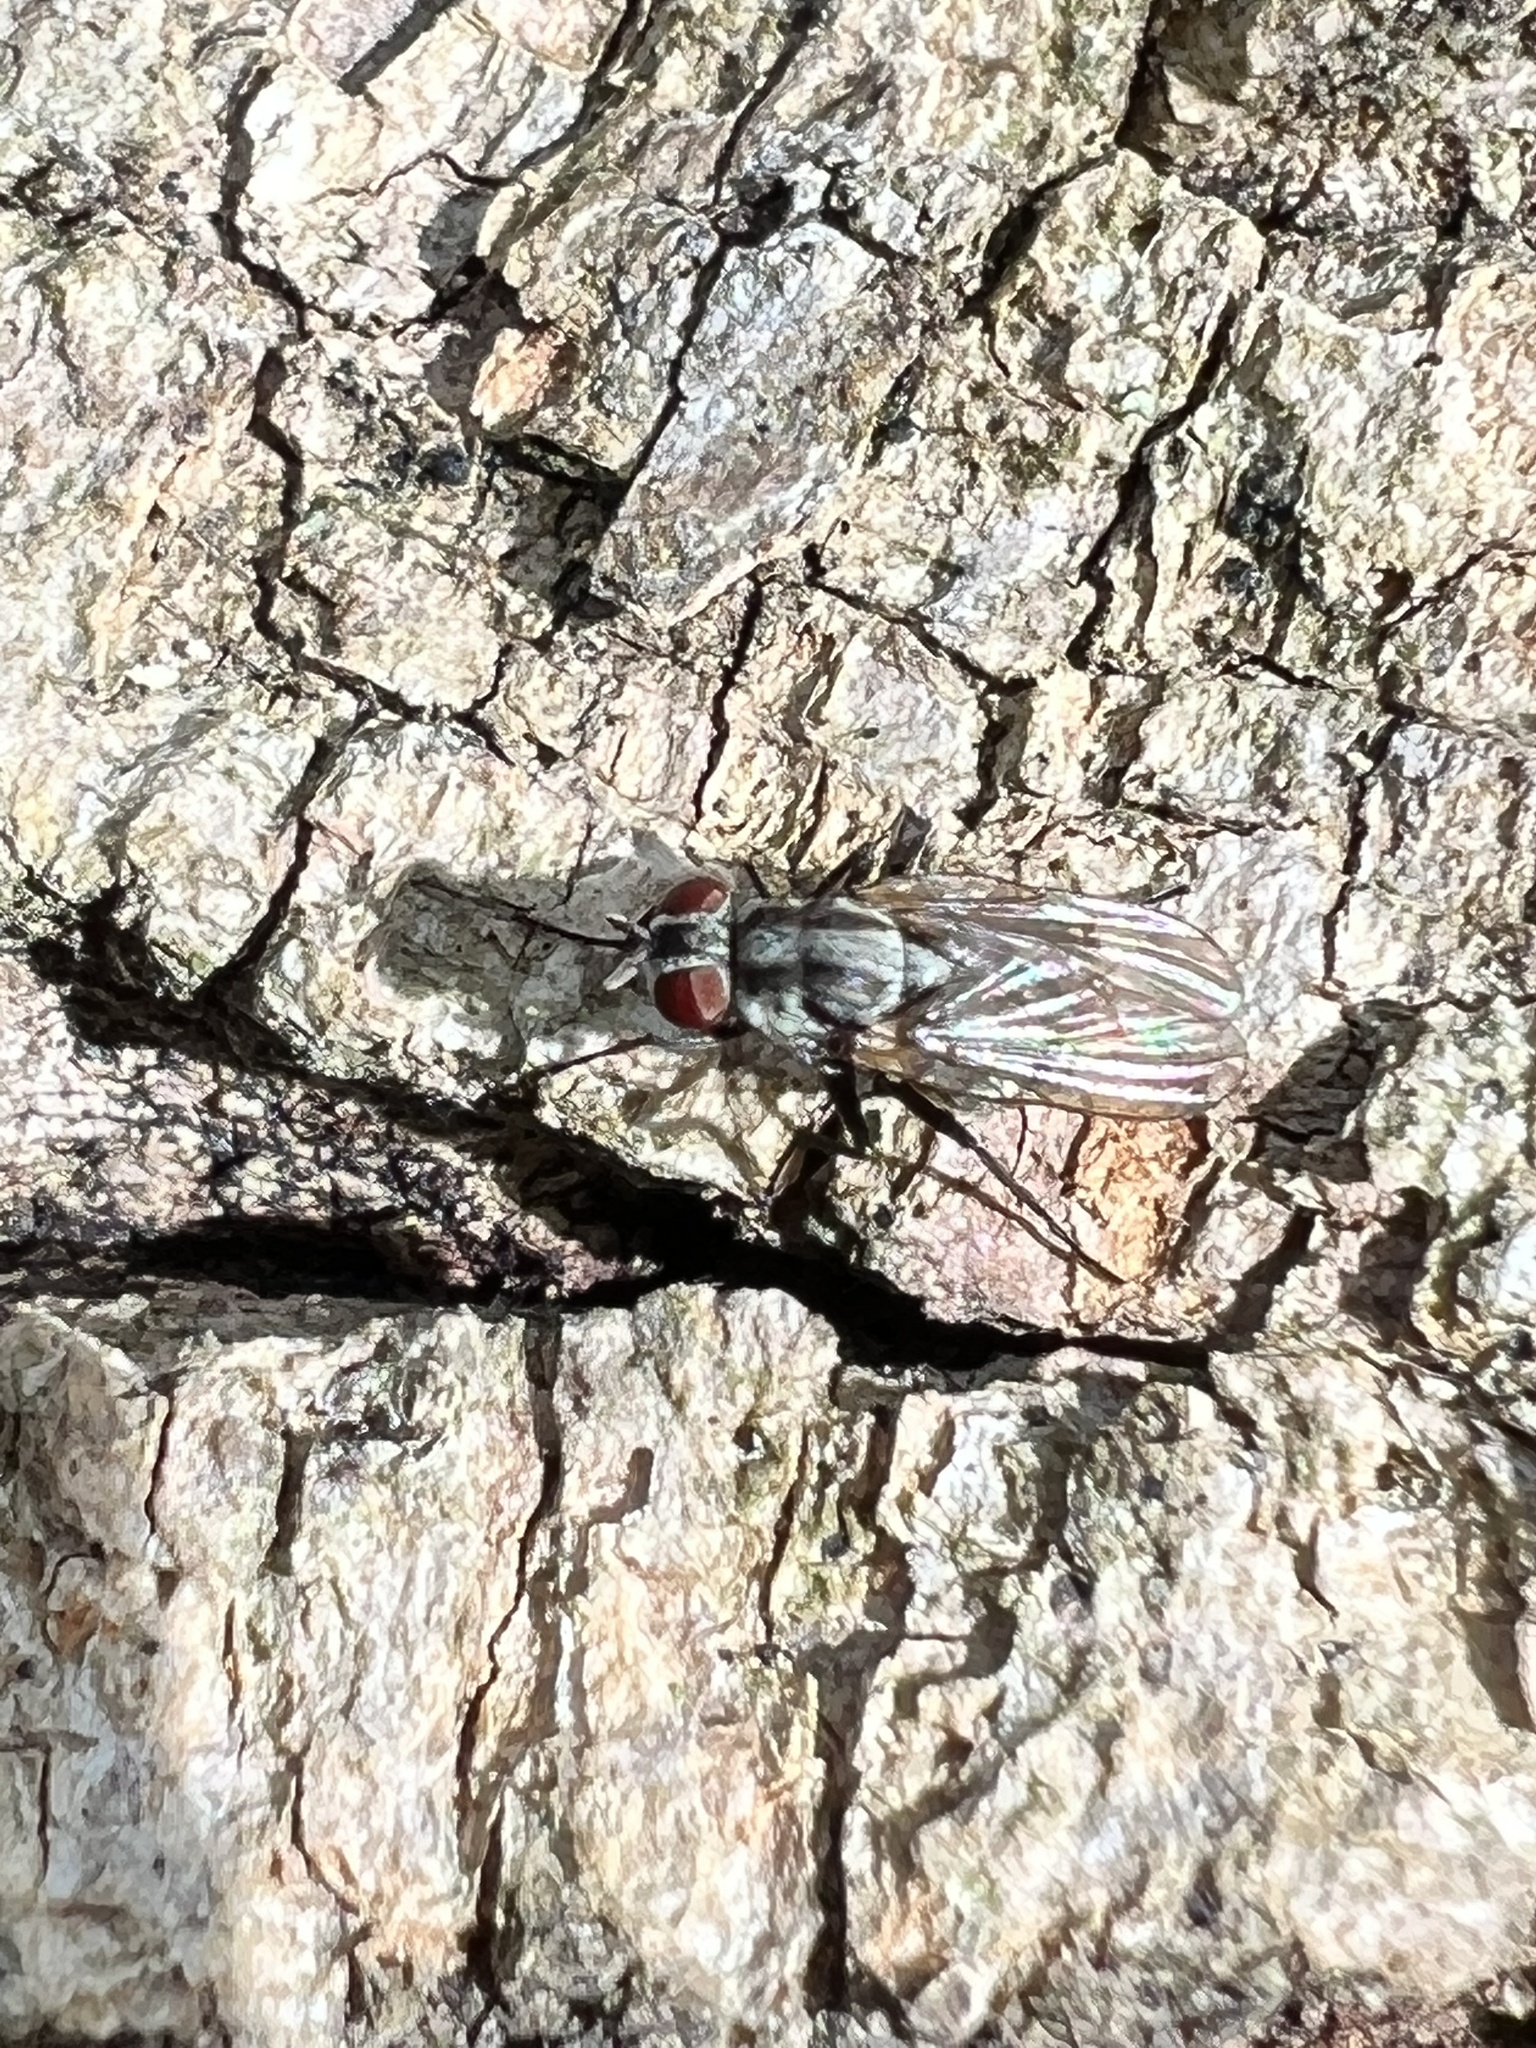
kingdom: Animalia
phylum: Arthropoda
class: Insecta
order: Diptera
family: Anthomyiidae
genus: Anthomyia
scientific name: Anthomyia oculifera
